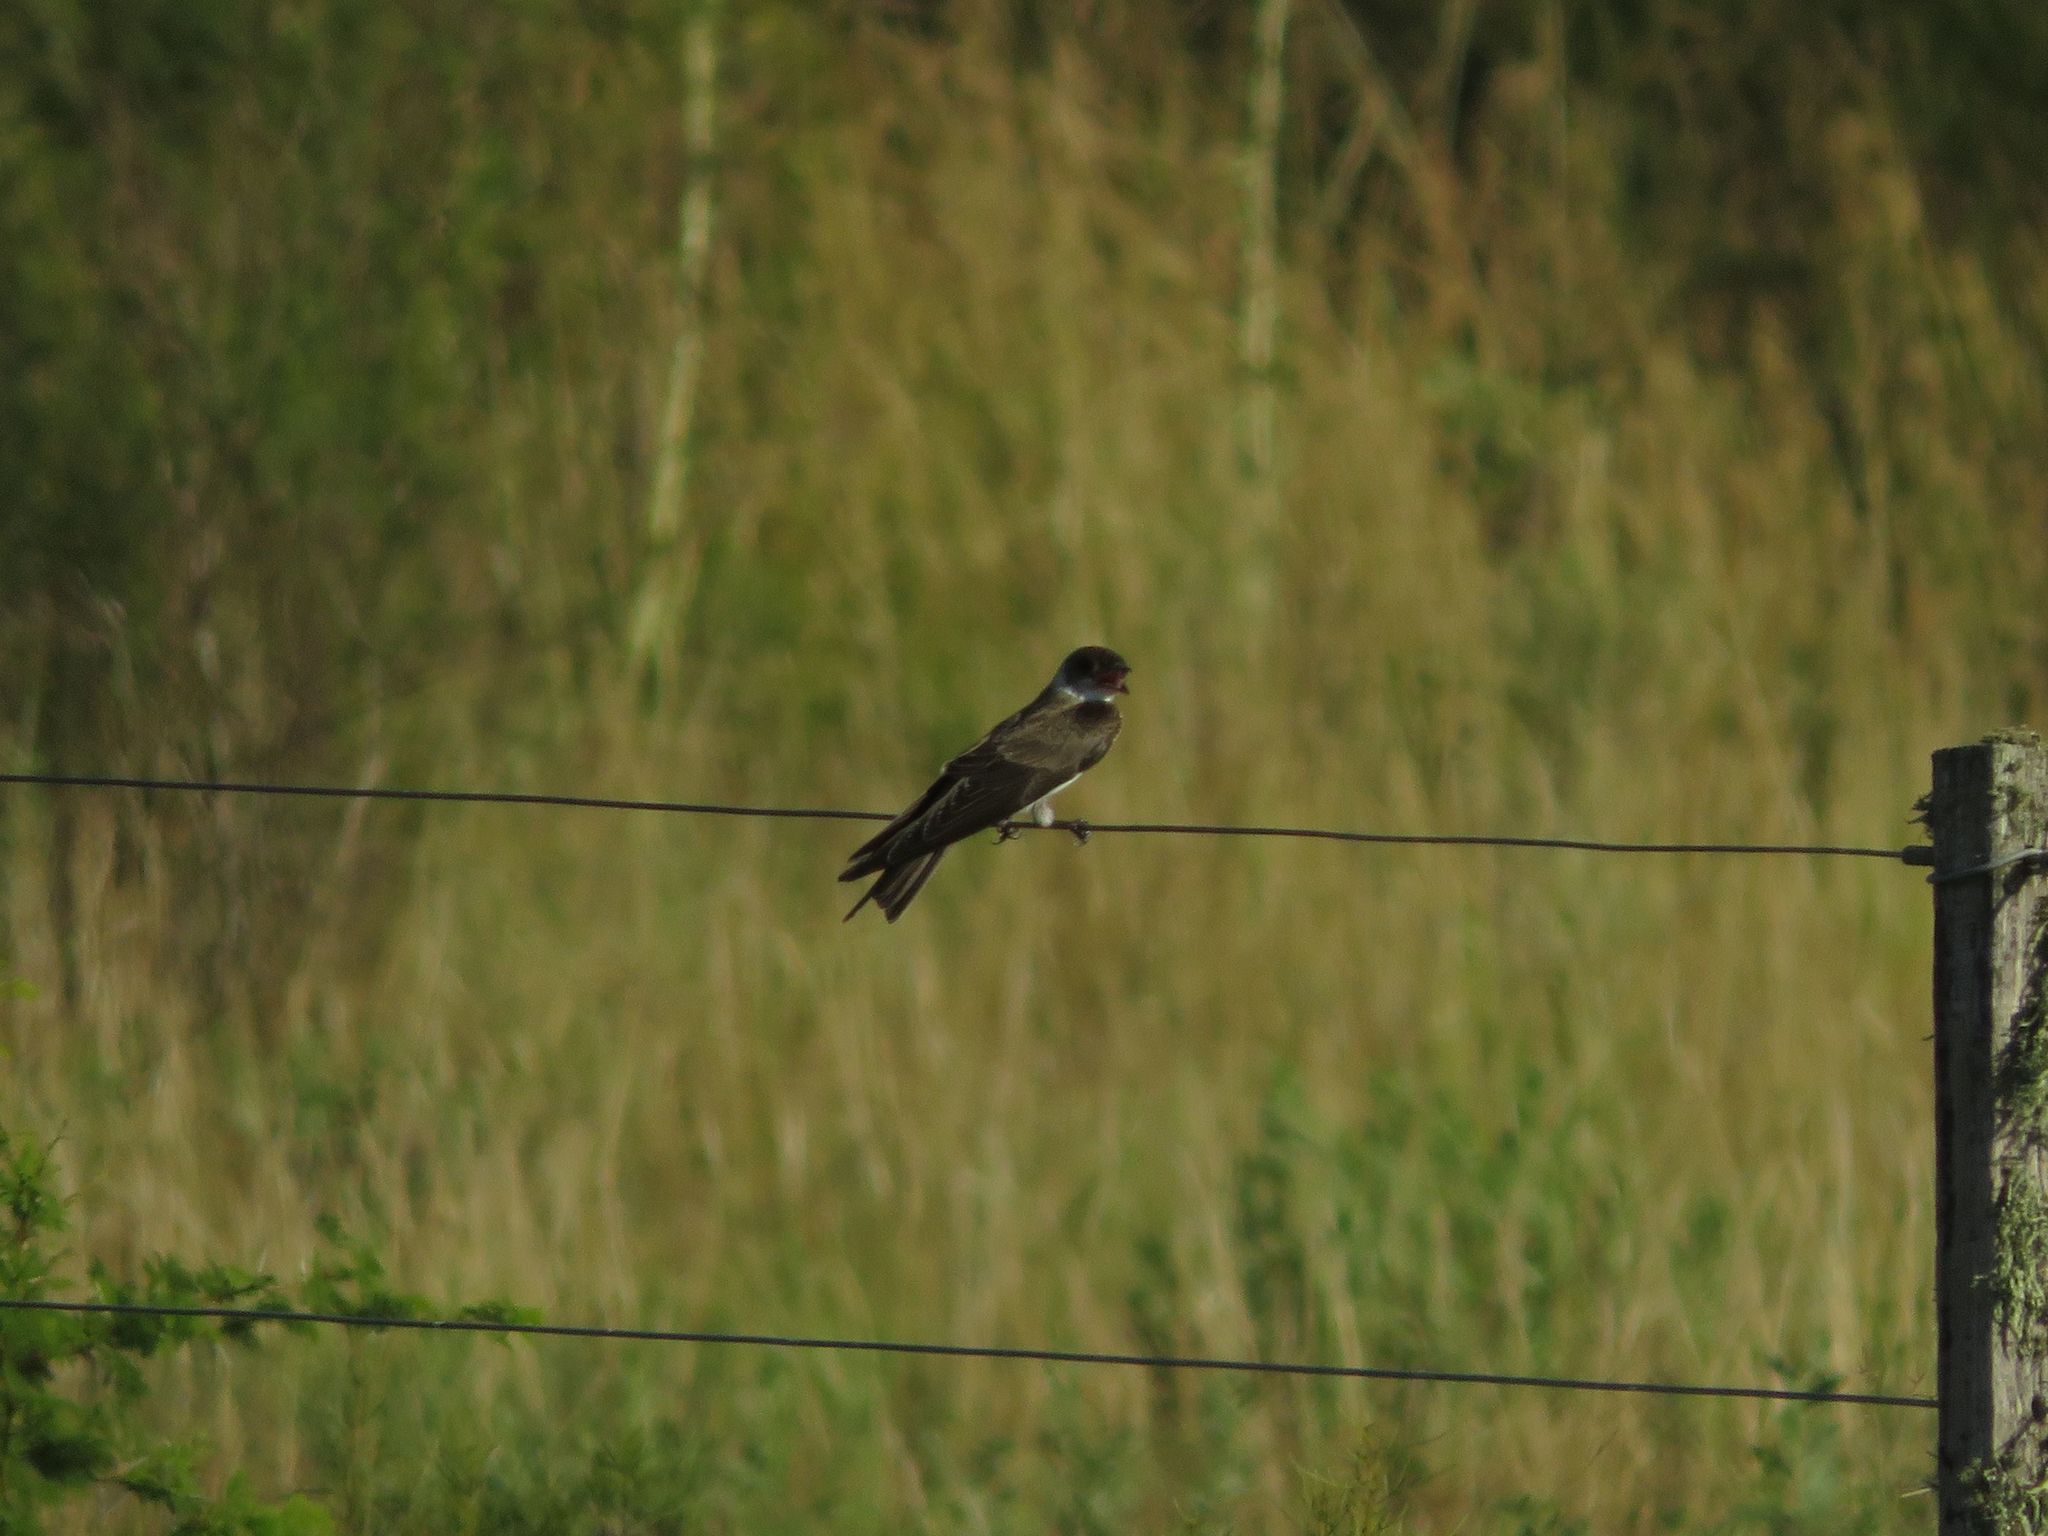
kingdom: Animalia
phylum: Chordata
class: Aves
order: Passeriformes
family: Hirundinidae
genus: Progne
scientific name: Progne tapera
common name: Brown-chested martin
